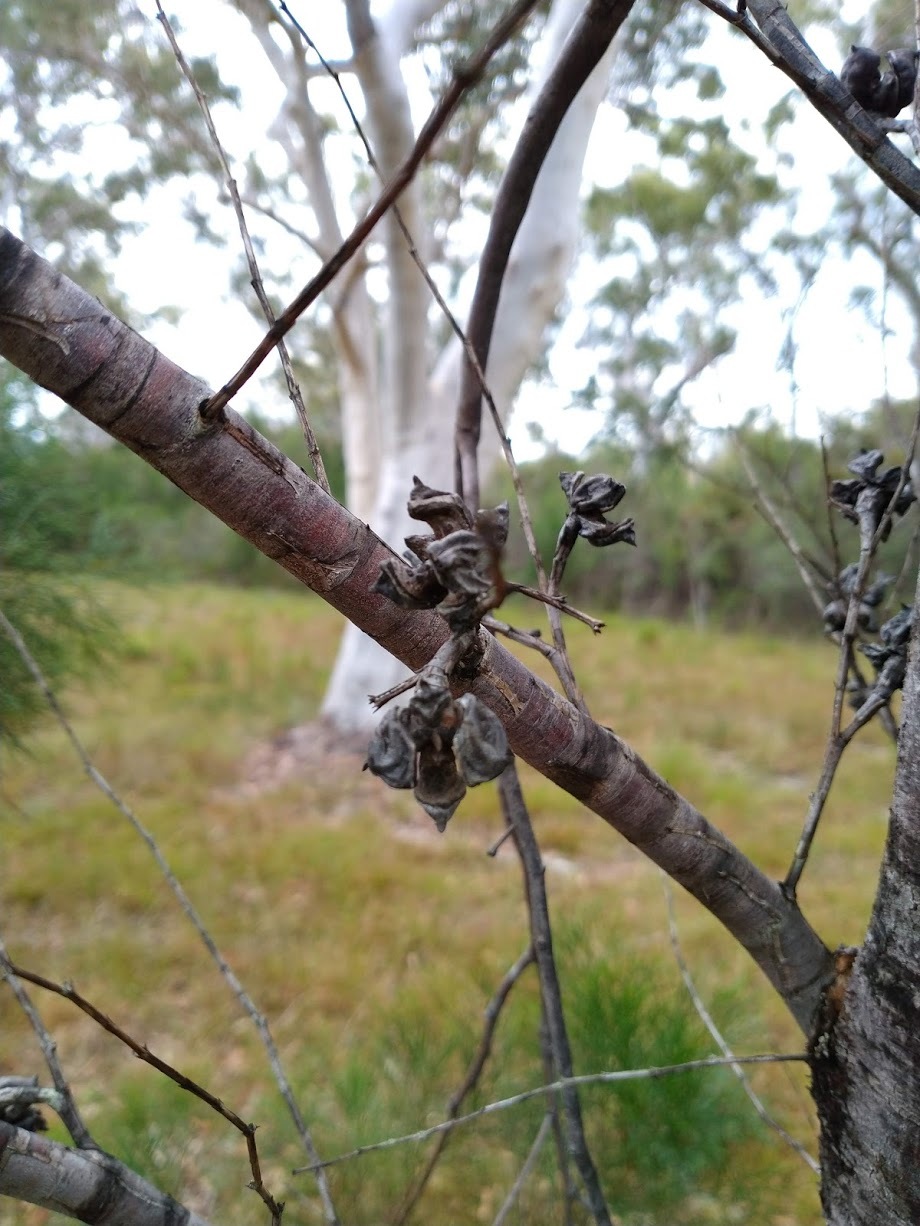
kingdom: Plantae
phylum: Tracheophyta
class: Pinopsida
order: Pinales
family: Cupressaceae
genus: Callitris
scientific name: Callitris rhomboidea
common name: Illawara mountain pine
